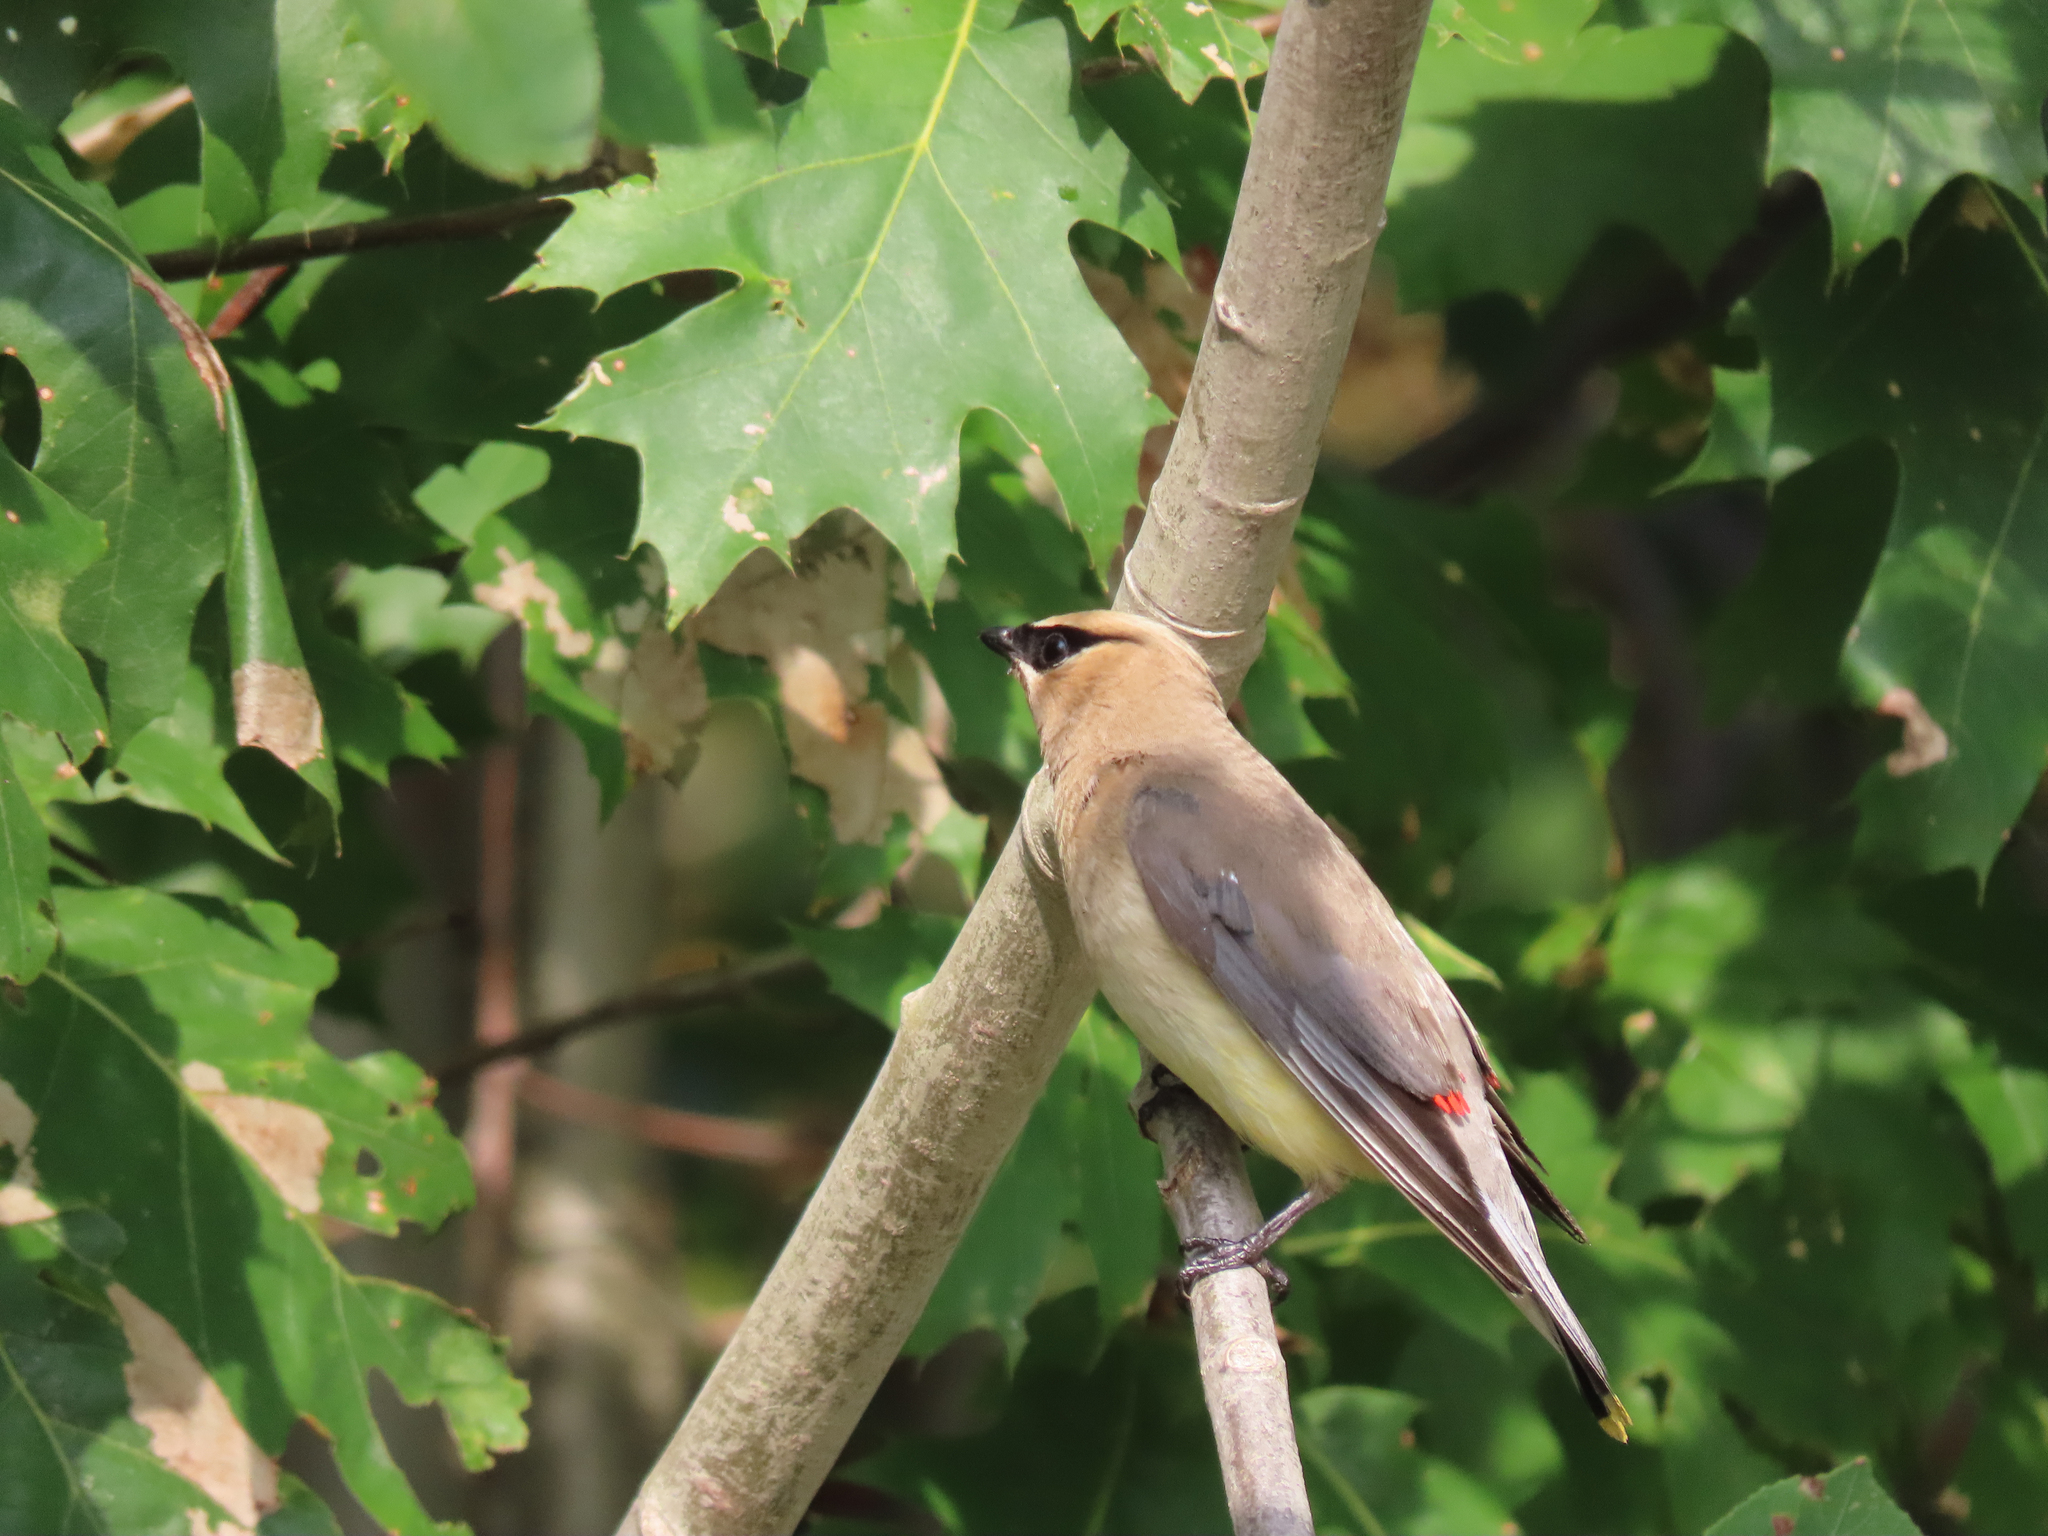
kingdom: Animalia
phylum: Chordata
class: Aves
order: Passeriformes
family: Bombycillidae
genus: Bombycilla
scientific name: Bombycilla cedrorum
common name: Cedar waxwing
